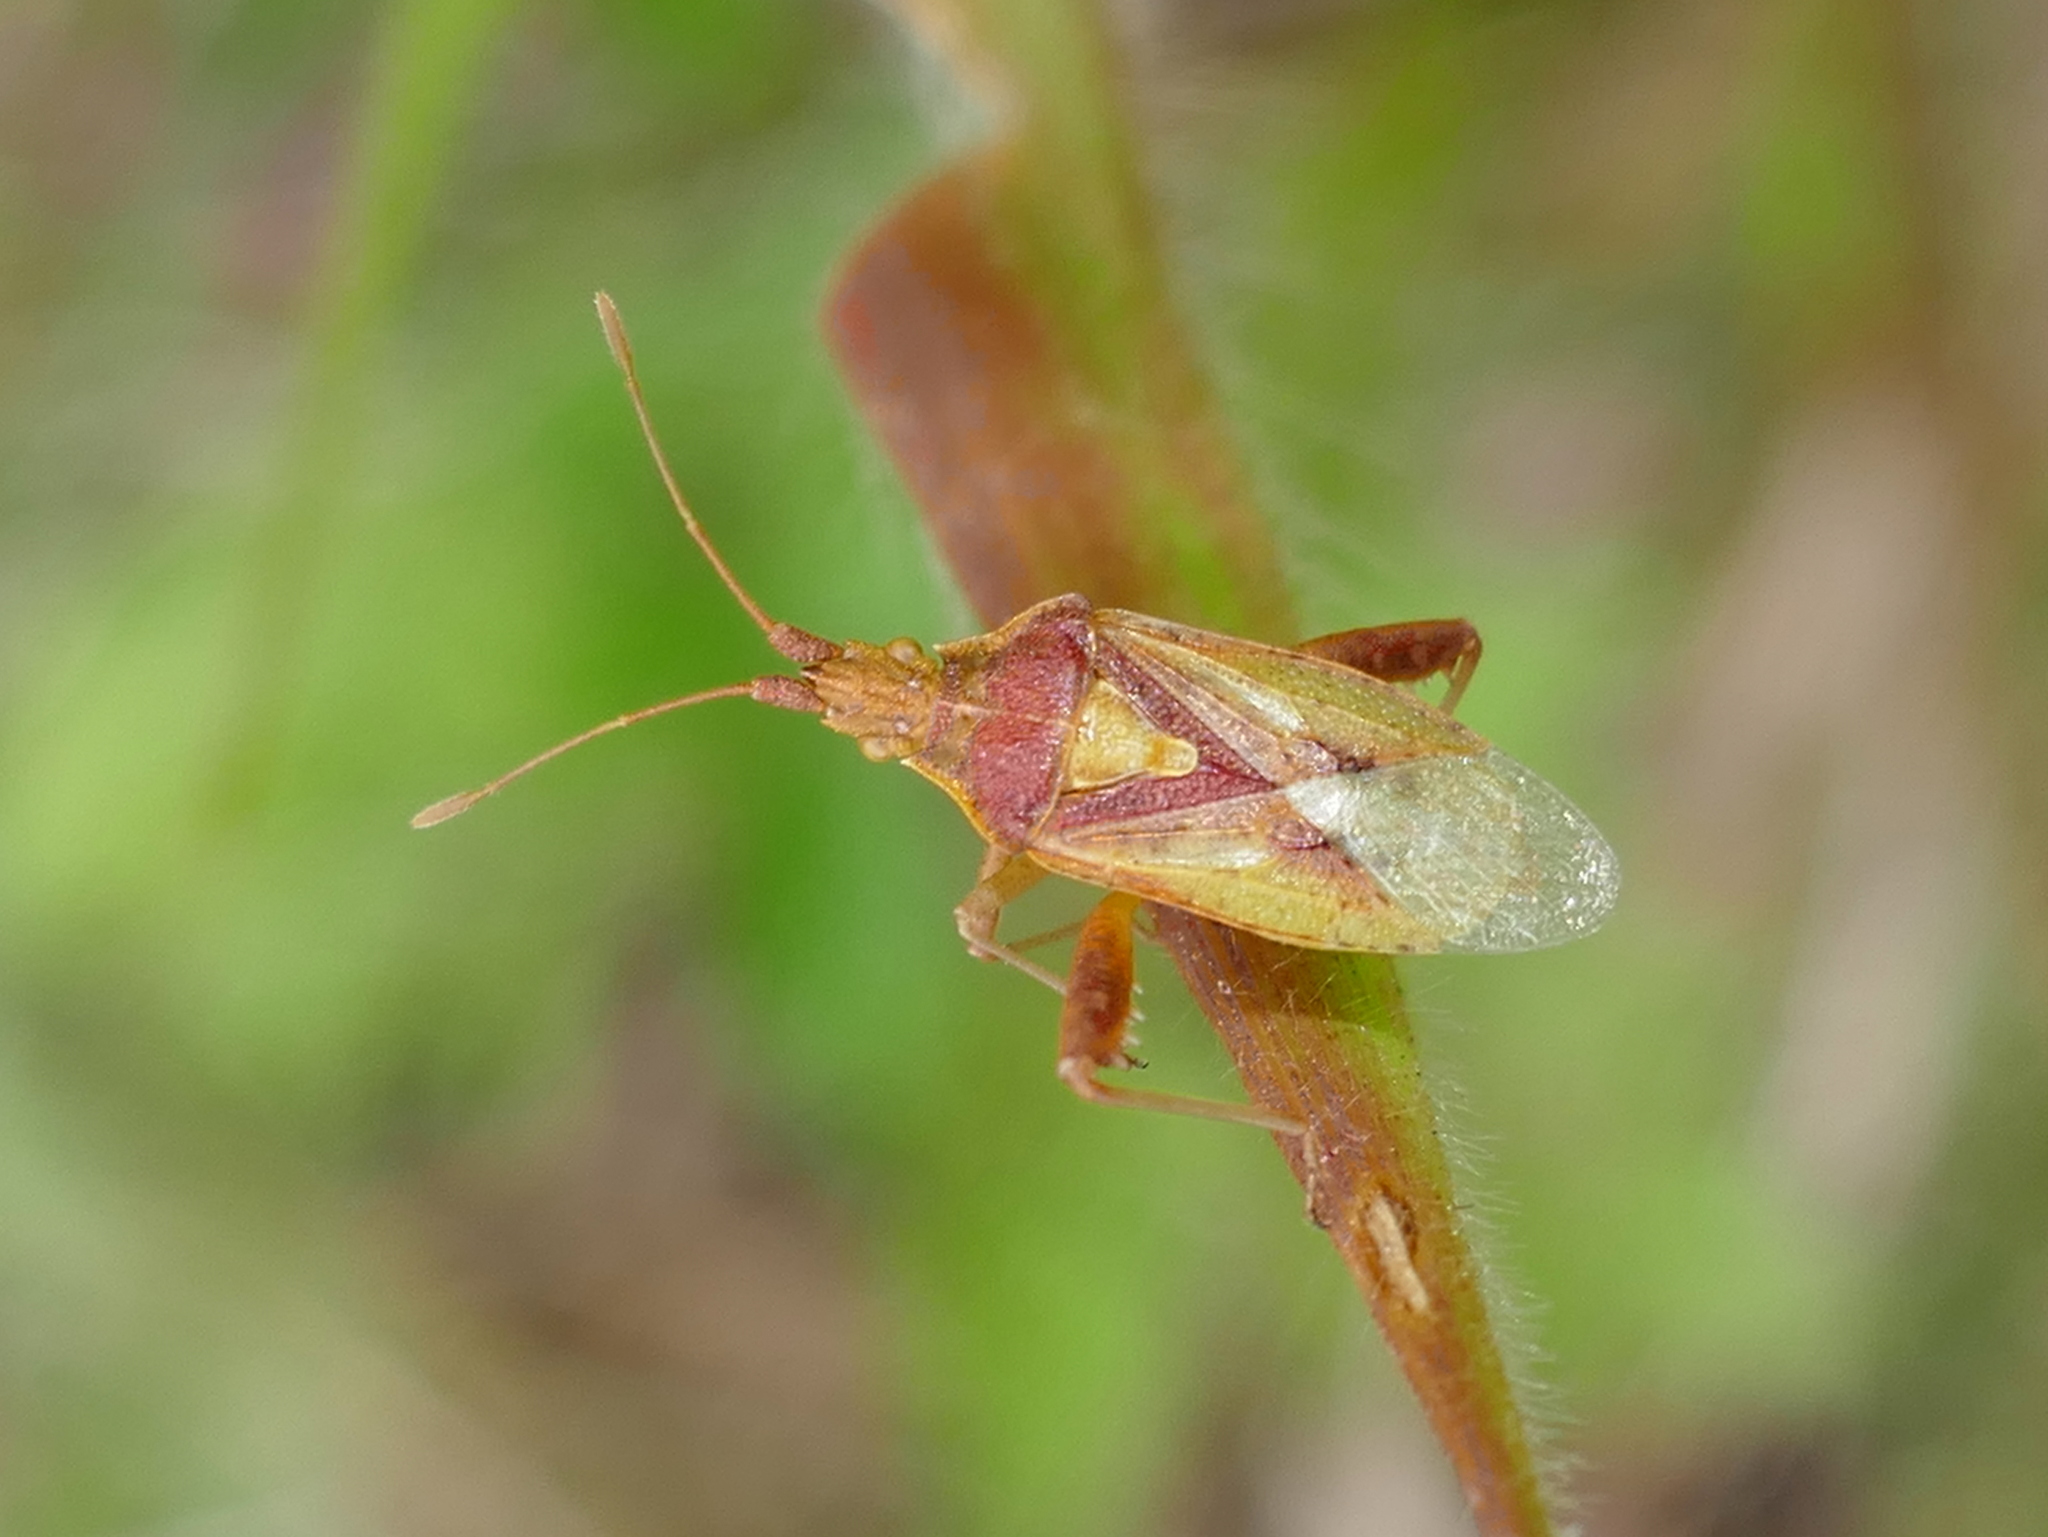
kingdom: Animalia
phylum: Arthropoda
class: Insecta
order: Hemiptera
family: Rhopalidae
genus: Harmostes
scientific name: Harmostes reflexulus
